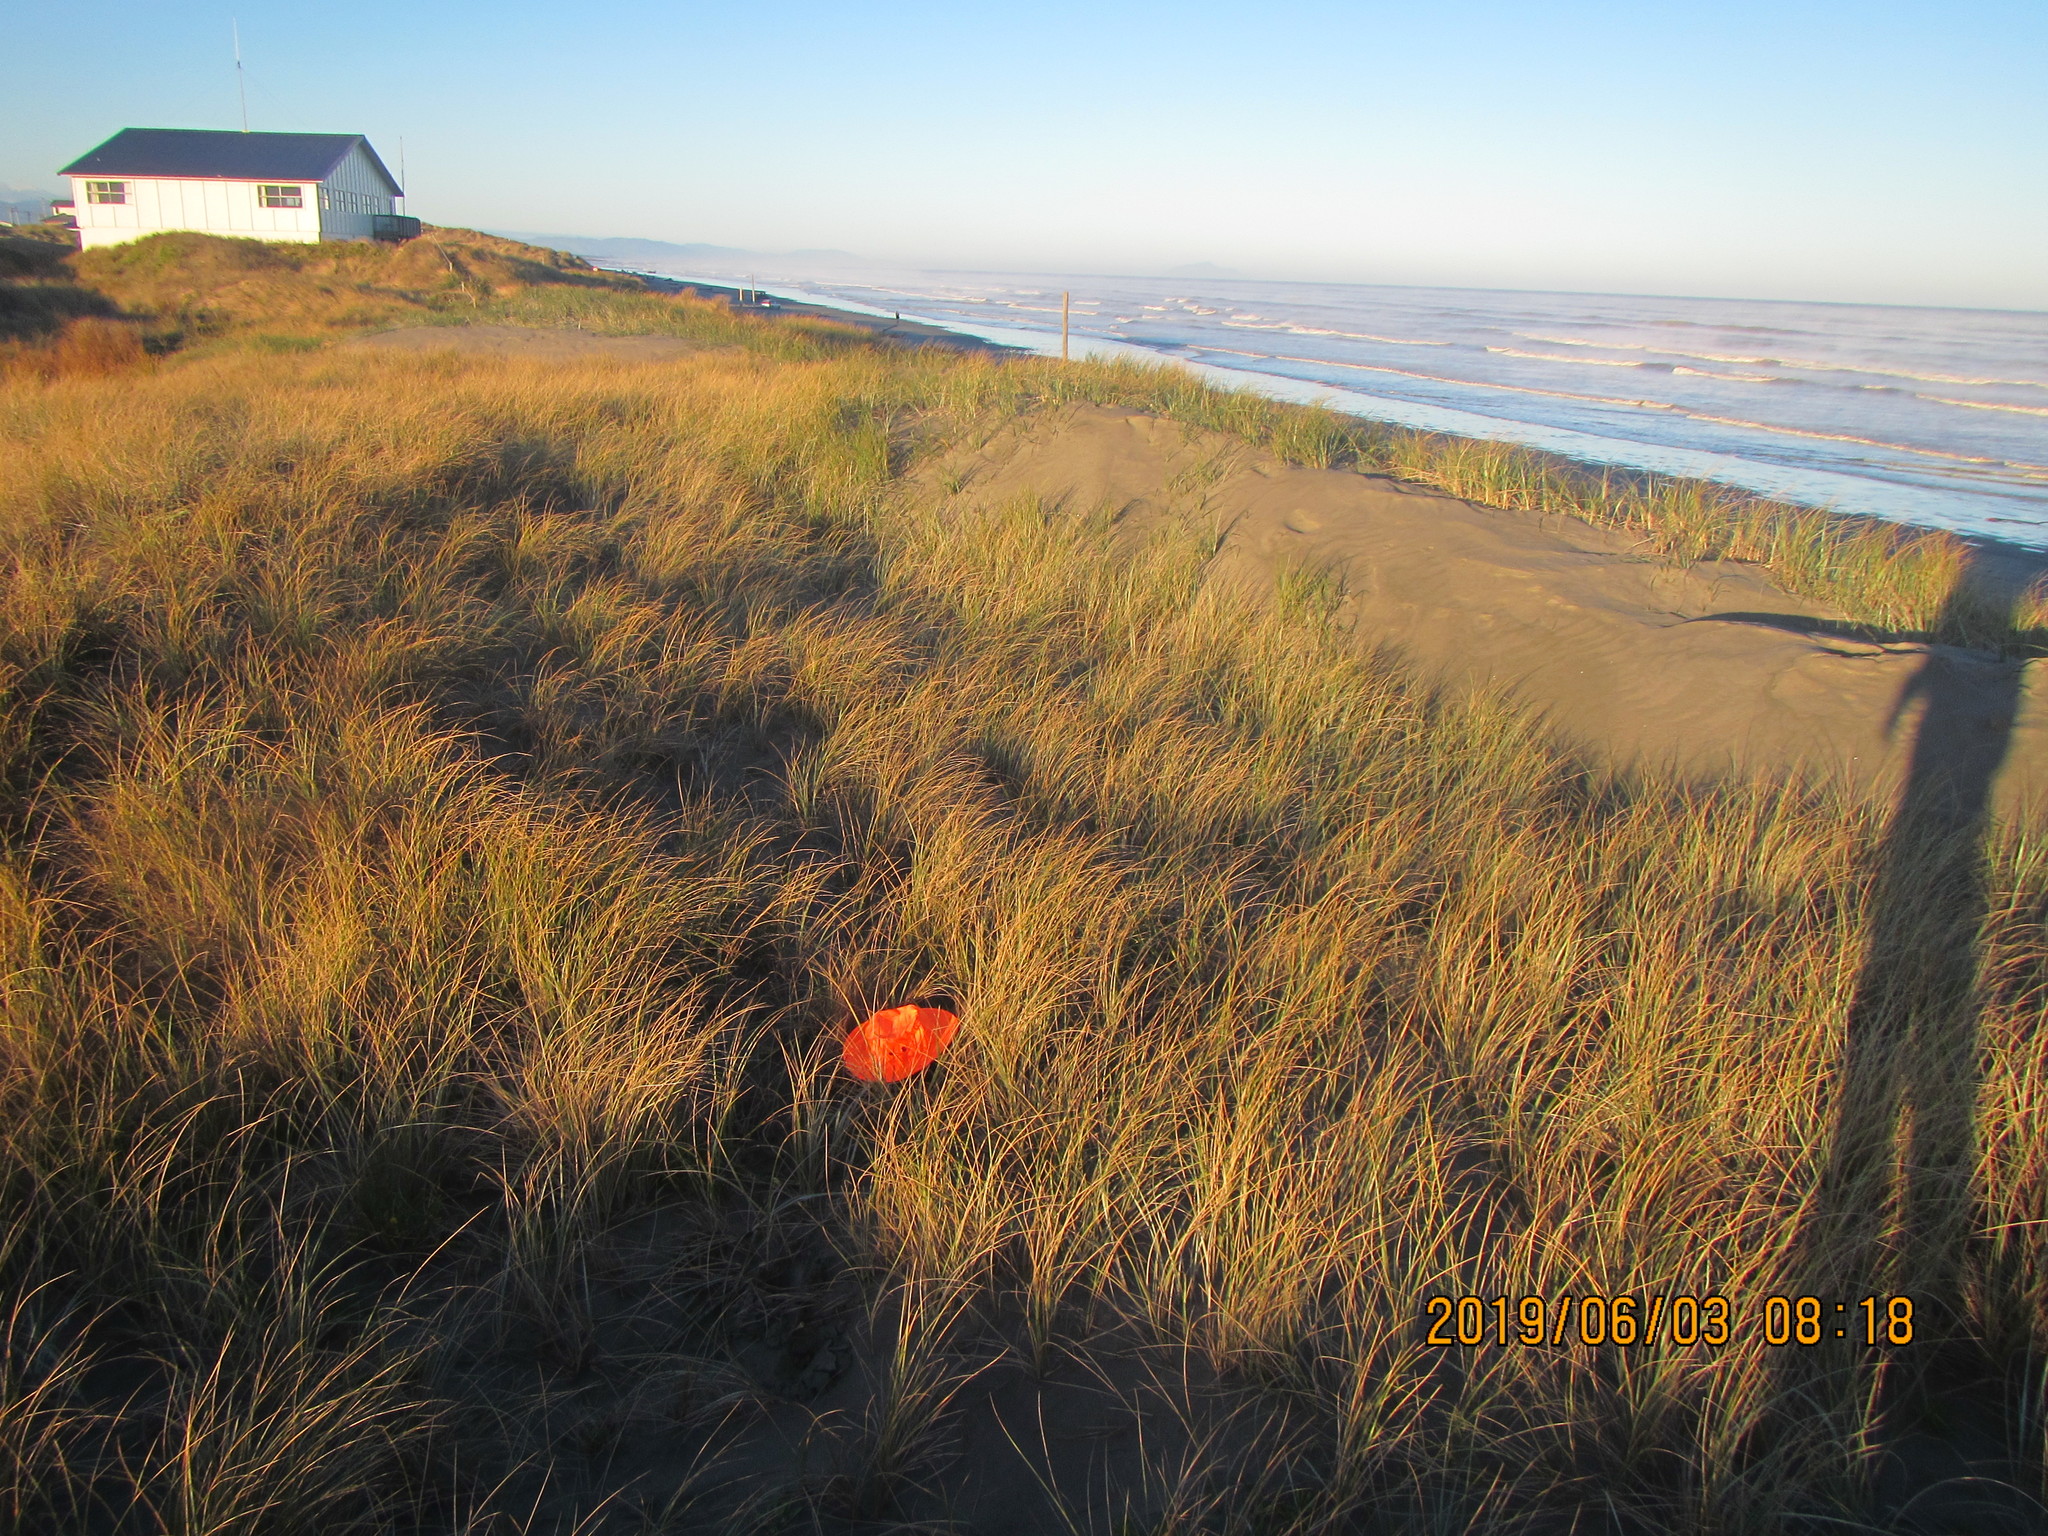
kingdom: Animalia
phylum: Arthropoda
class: Arachnida
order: Araneae
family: Theridiidae
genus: Latrodectus
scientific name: Latrodectus katipo
